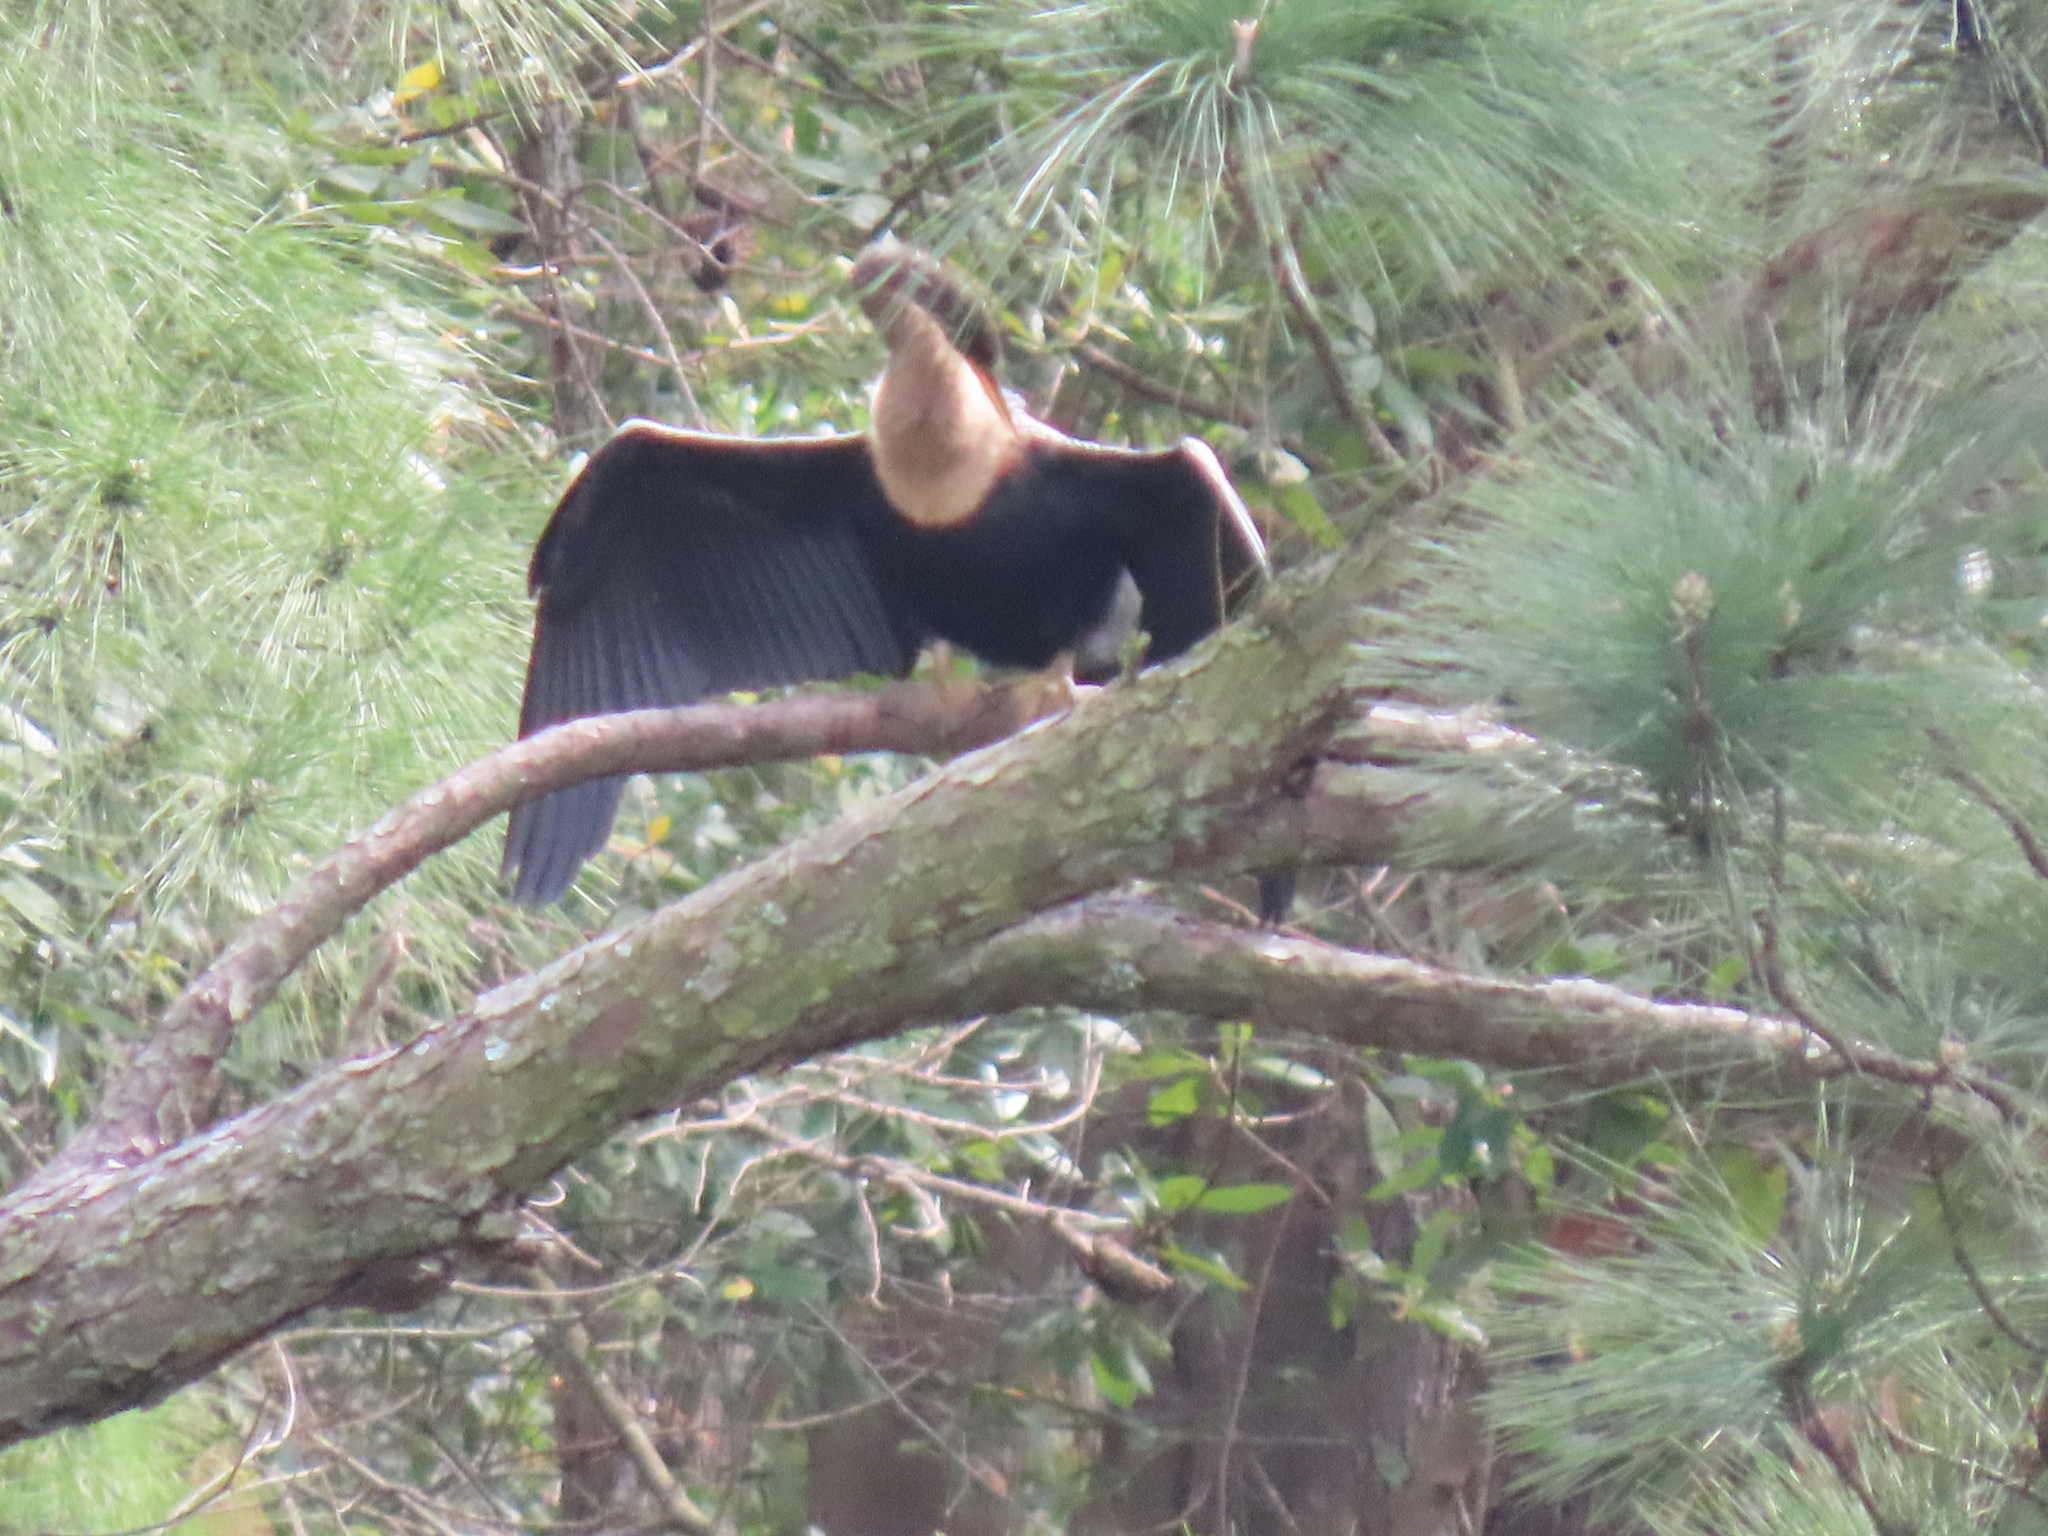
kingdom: Animalia
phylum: Chordata
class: Aves
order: Suliformes
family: Anhingidae
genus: Anhinga
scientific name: Anhinga anhinga
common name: Anhinga
